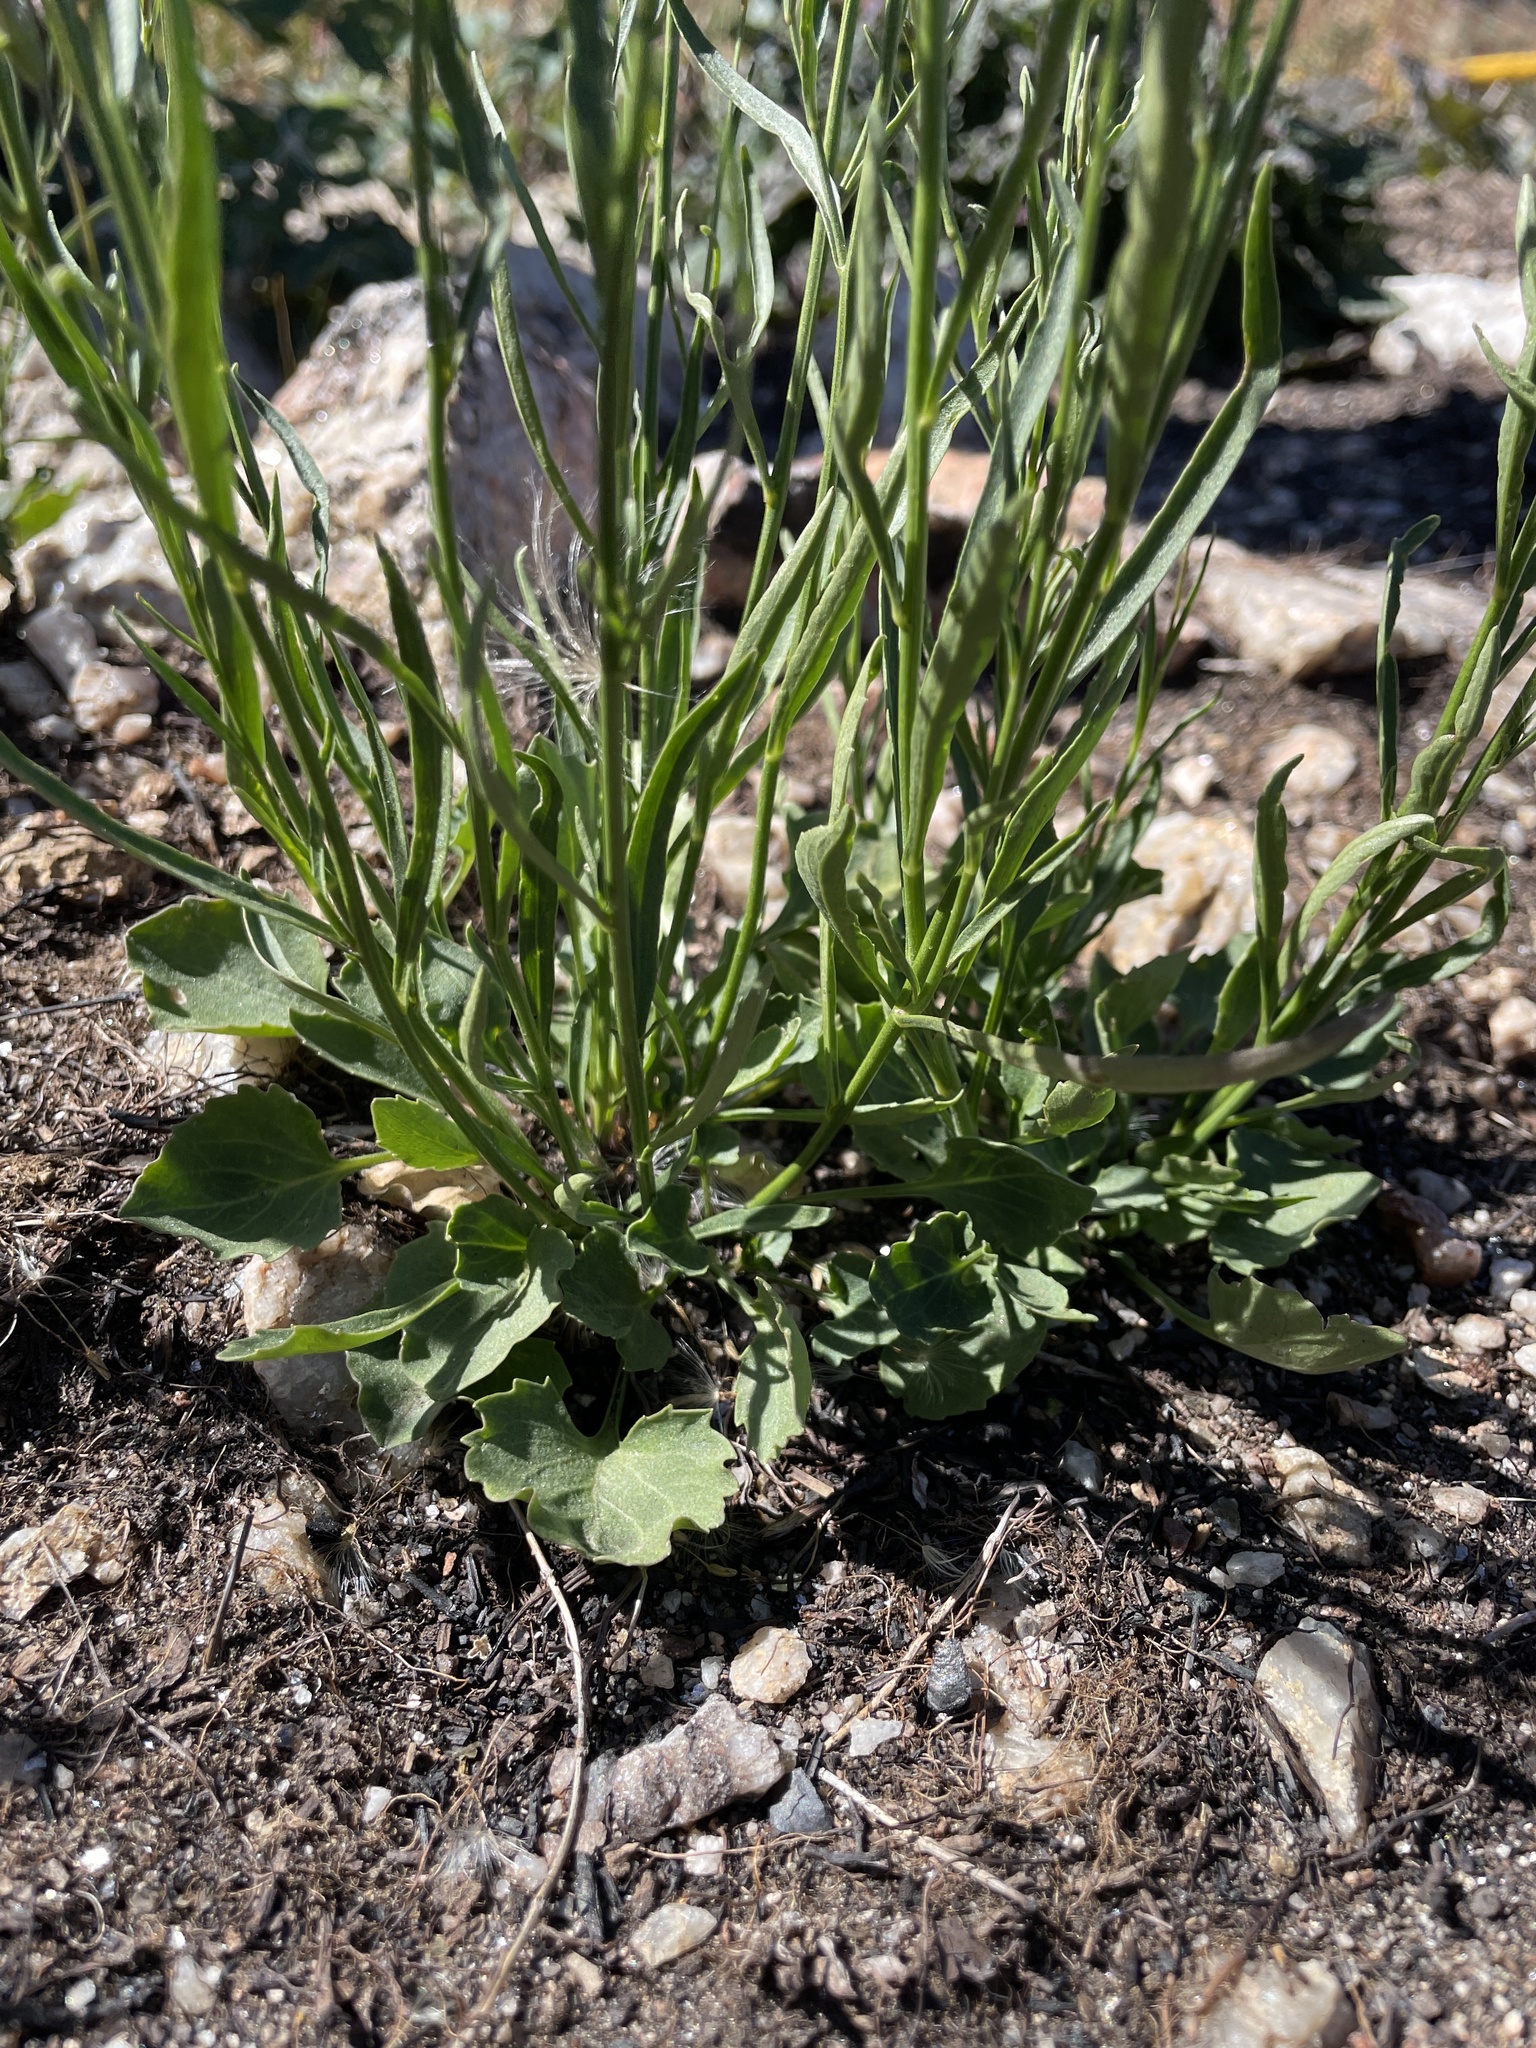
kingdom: Plantae
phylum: Tracheophyta
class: Magnoliopsida
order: Asterales
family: Campanulaceae
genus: Campanula
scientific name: Campanula petiolata
